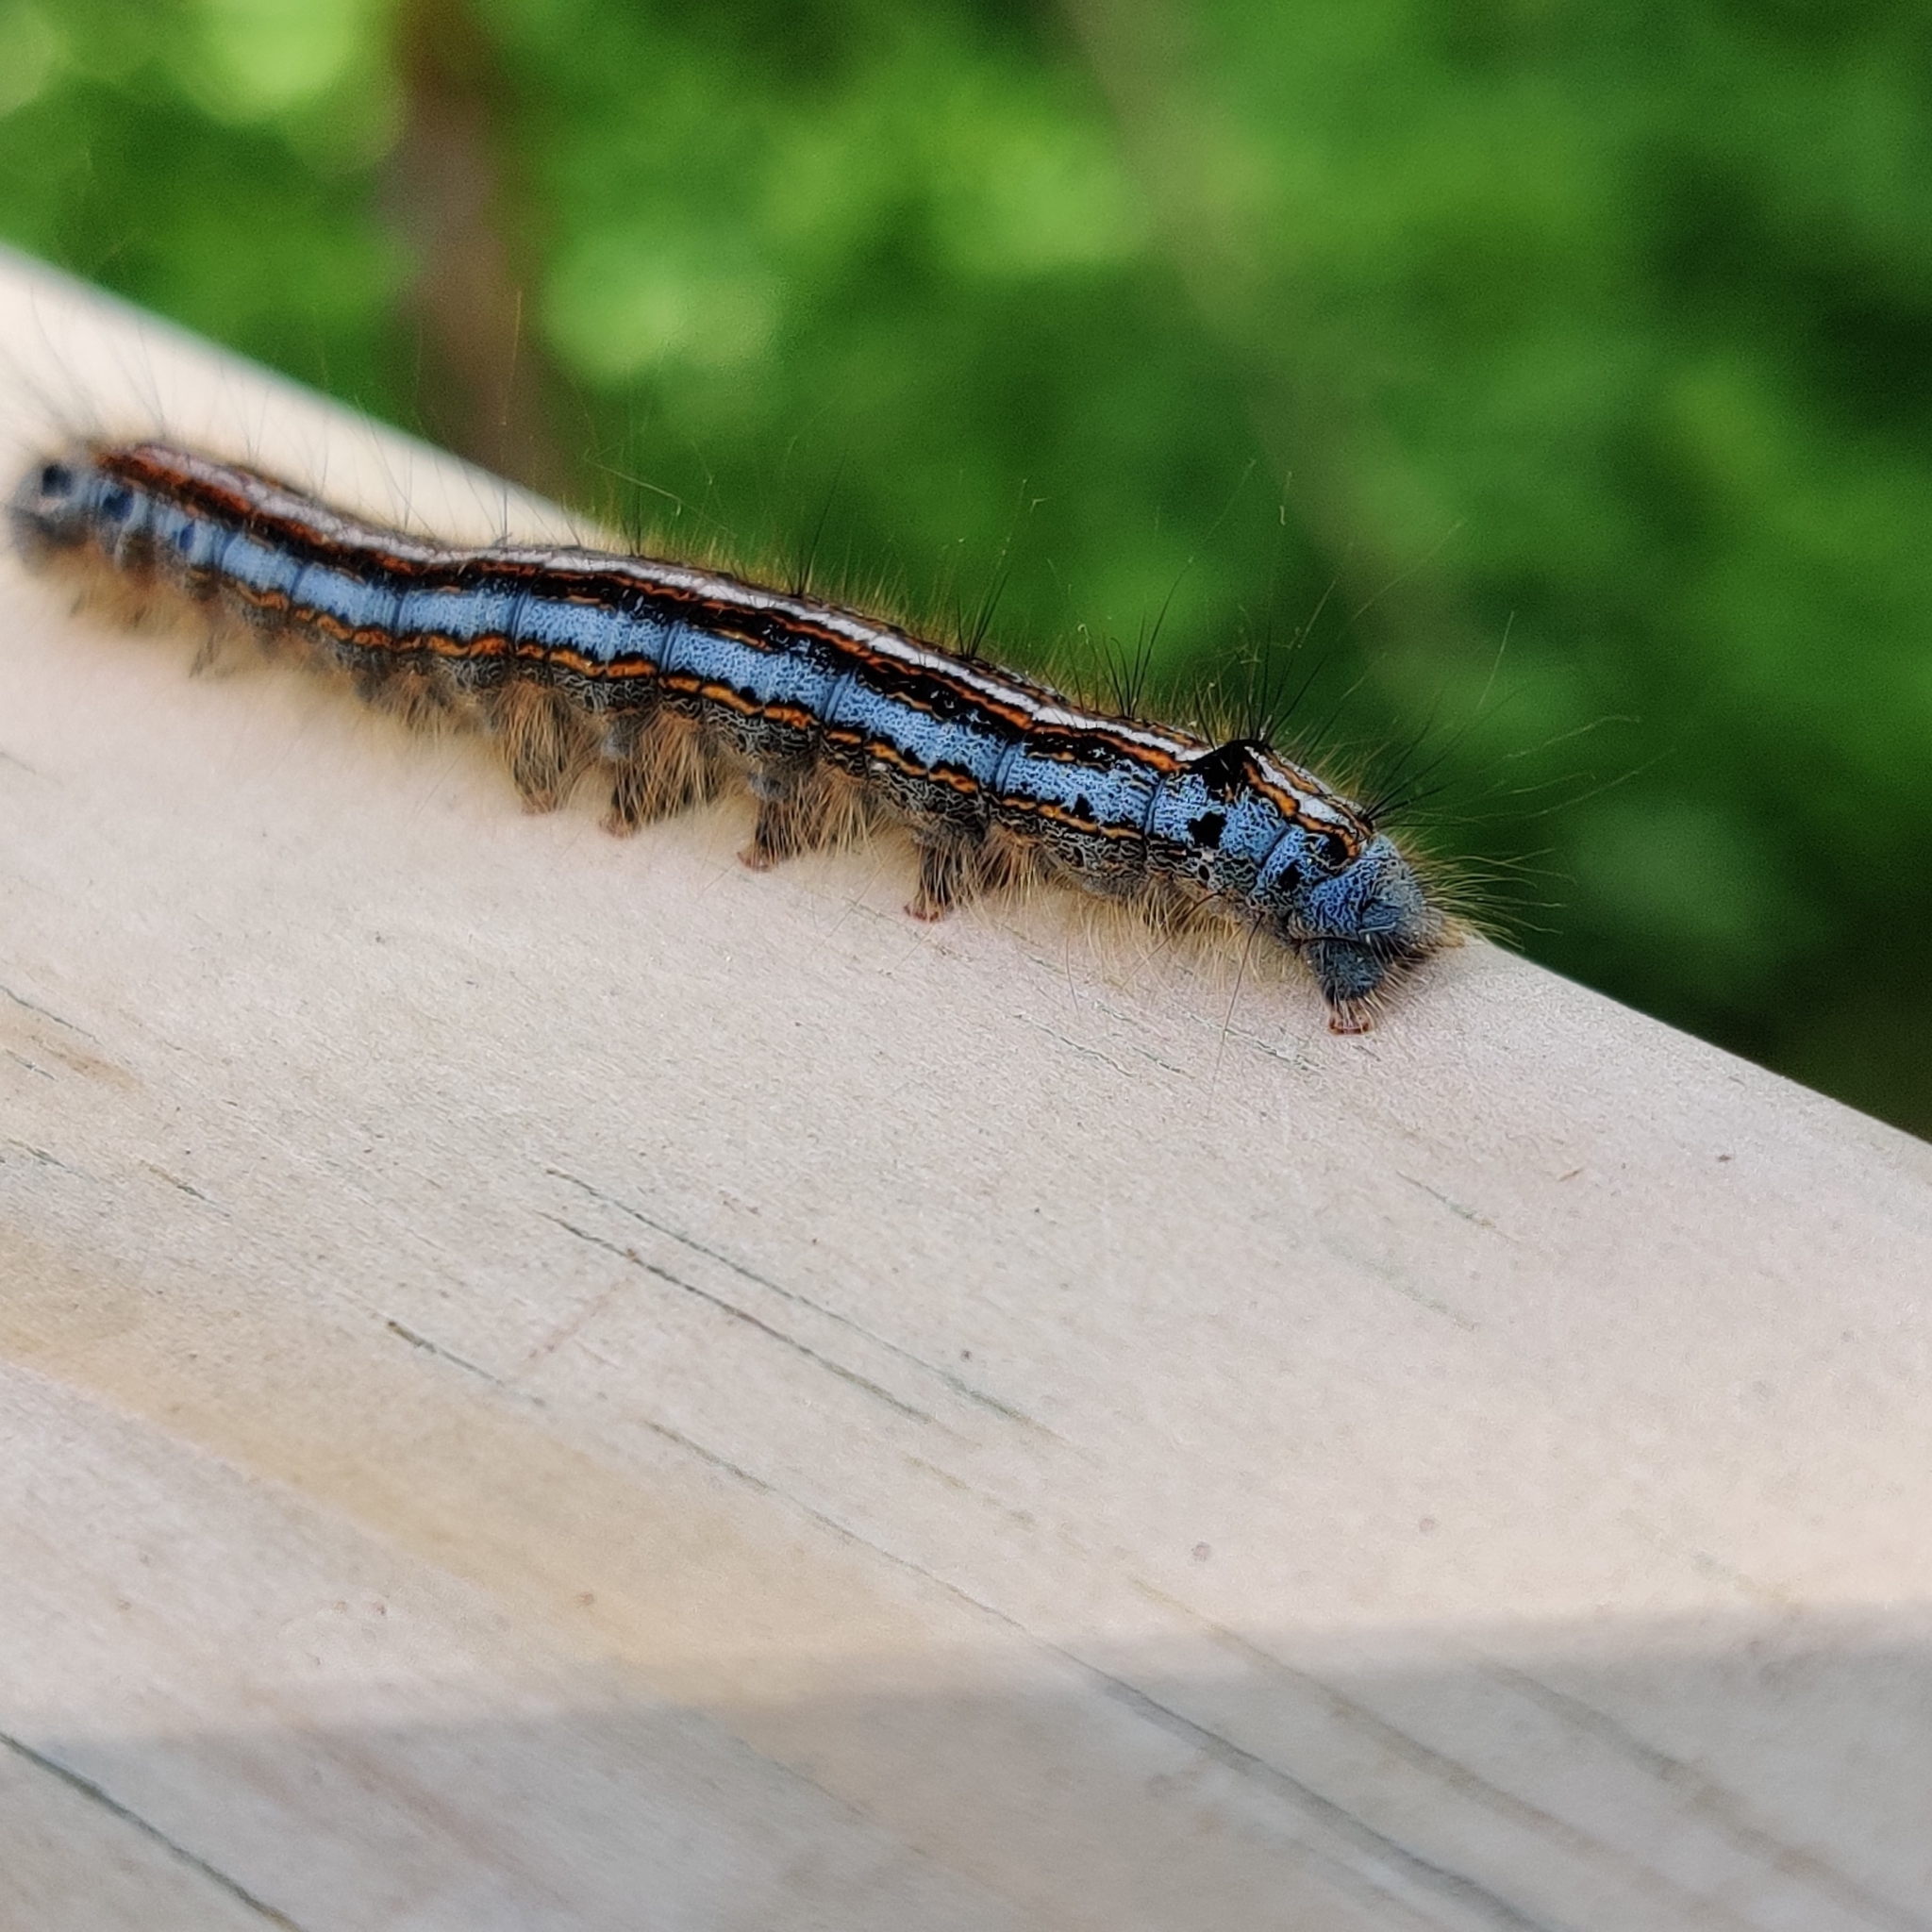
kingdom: Animalia
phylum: Arthropoda
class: Insecta
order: Lepidoptera
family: Lasiocampidae
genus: Malacosoma
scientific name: Malacosoma neustria
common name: The lackey
